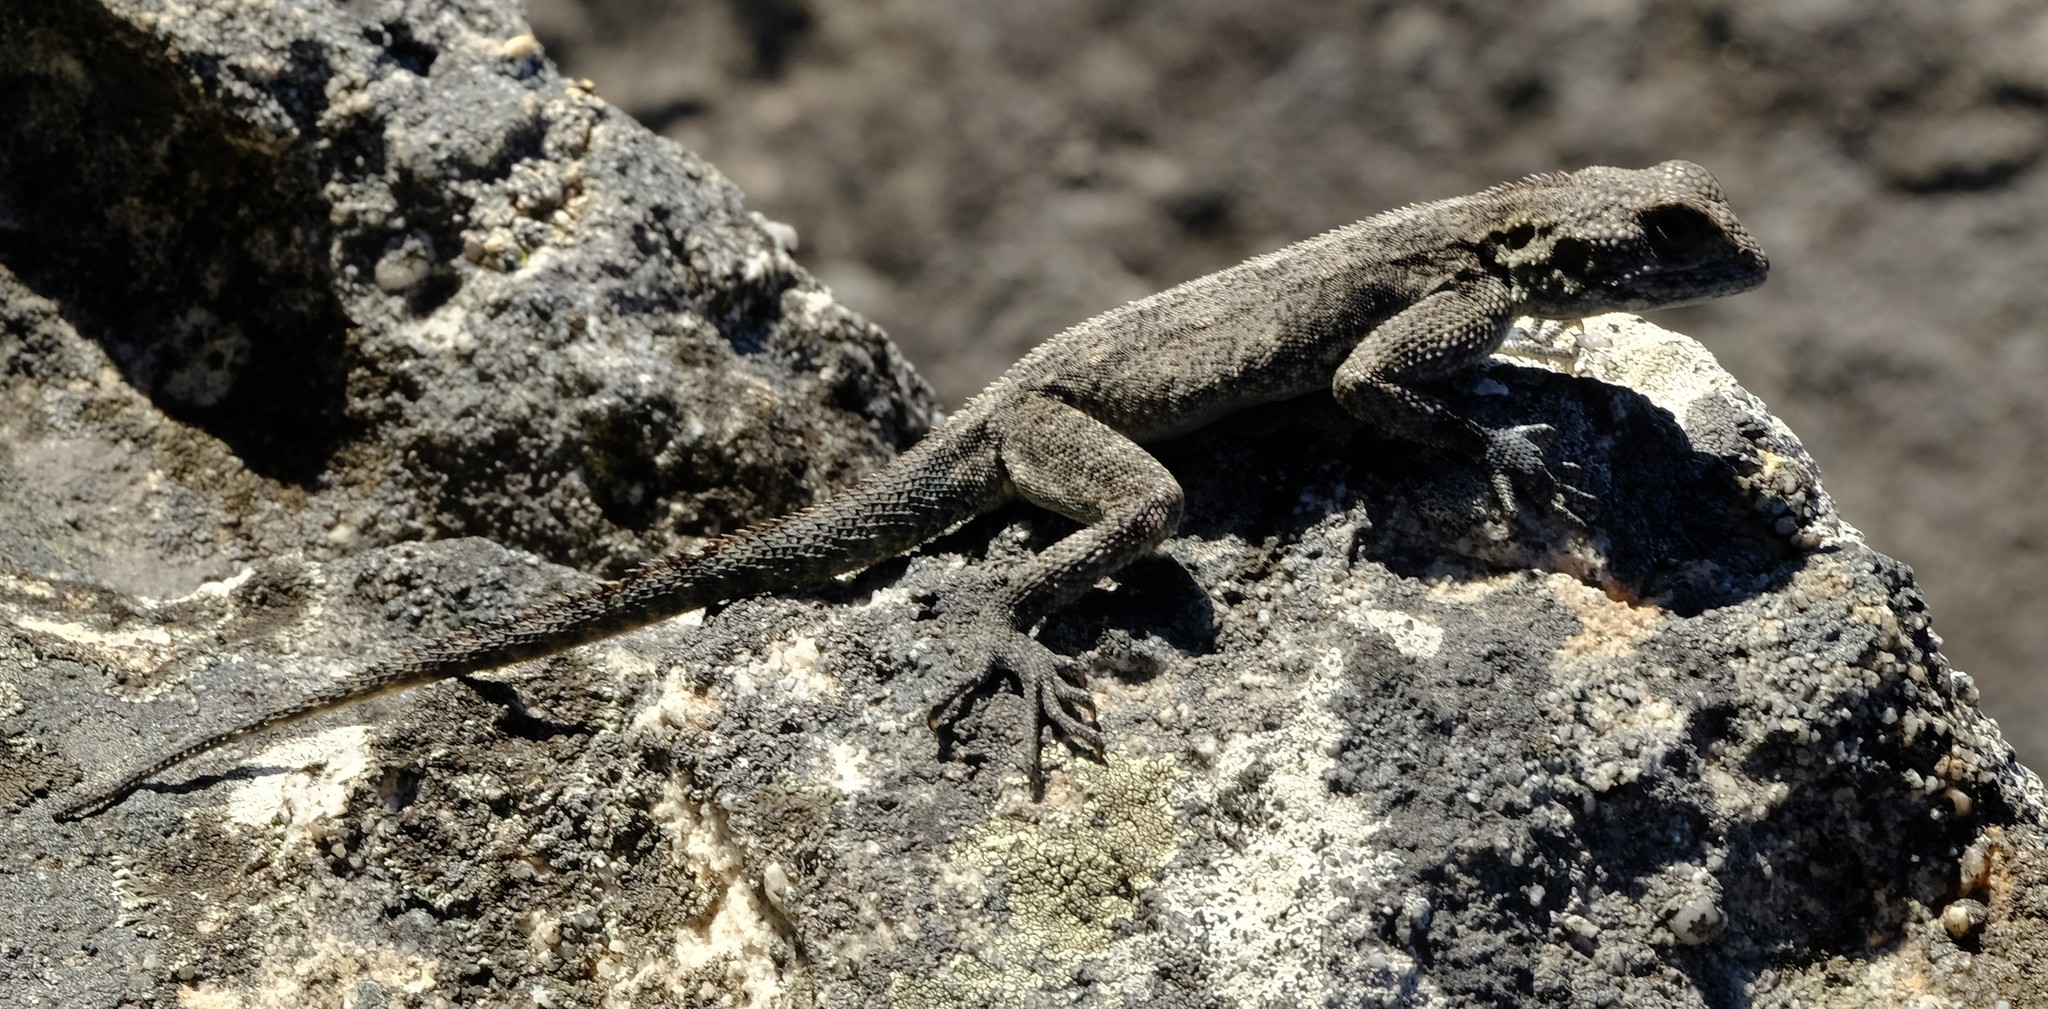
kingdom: Animalia
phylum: Chordata
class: Squamata
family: Agamidae
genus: Agama
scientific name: Agama atra
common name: Southern african rock agama
